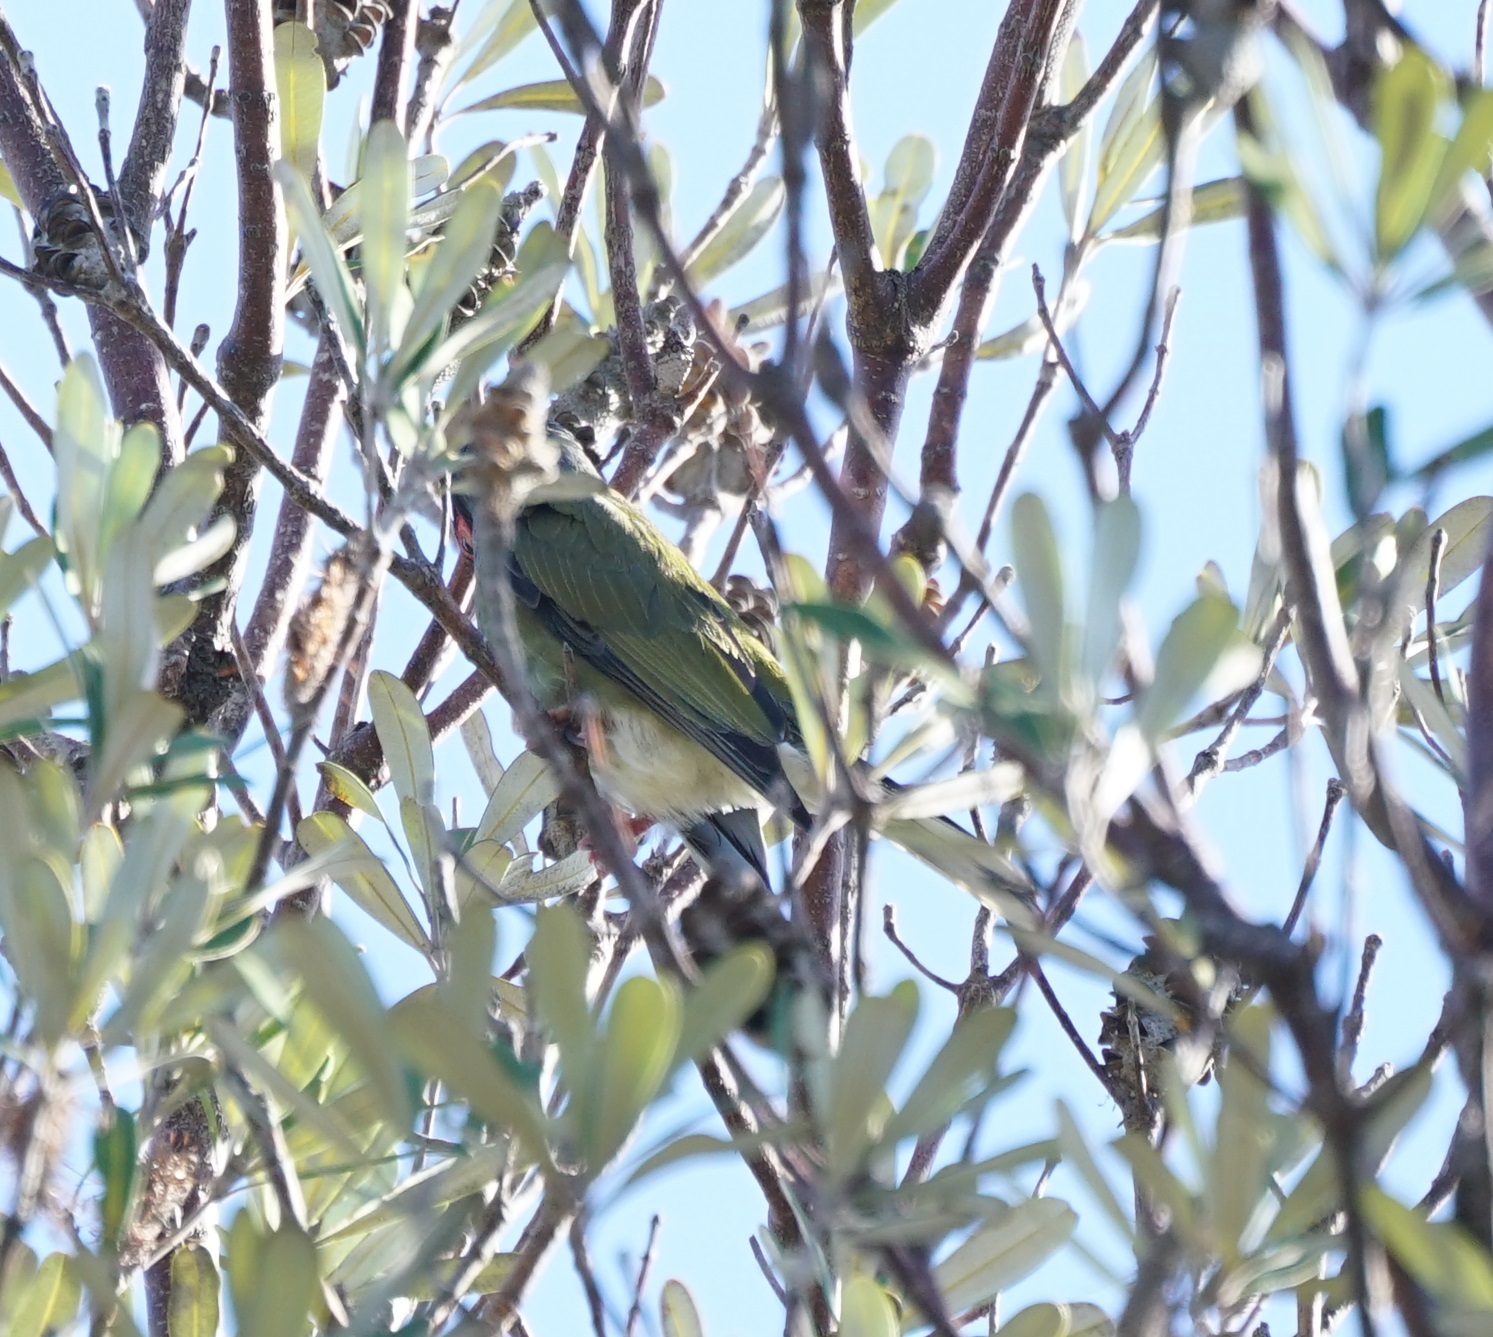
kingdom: Animalia
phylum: Chordata
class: Aves
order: Passeriformes
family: Oriolidae
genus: Sphecotheres
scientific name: Sphecotheres vieilloti
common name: Australasian figbird
